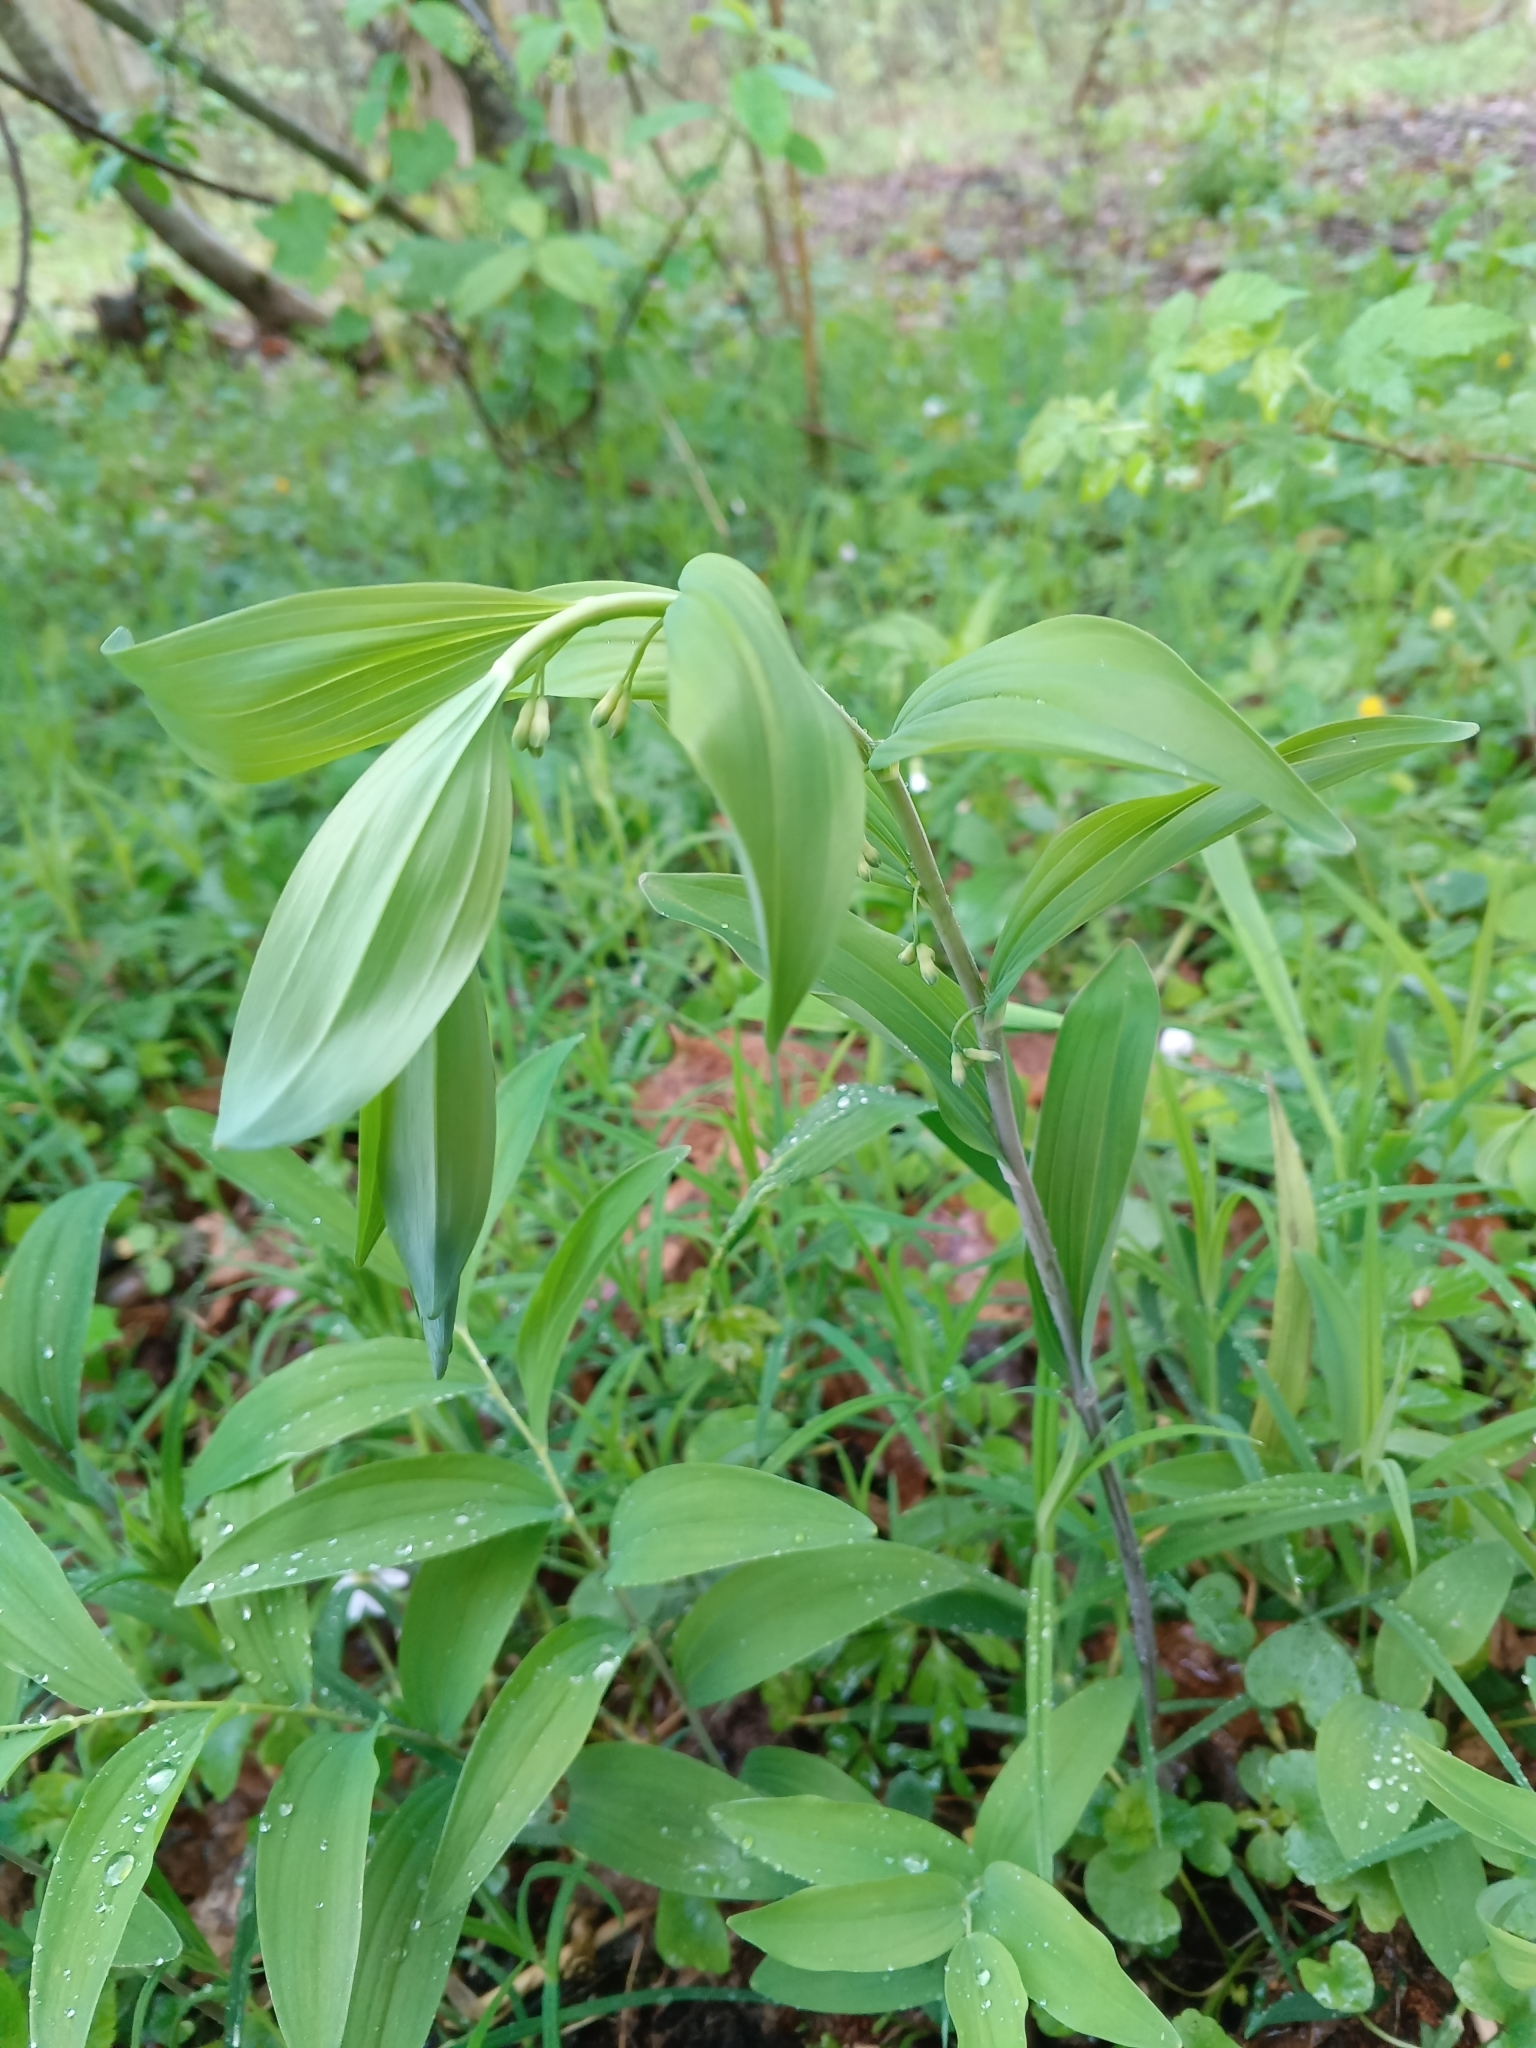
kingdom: Plantae
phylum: Tracheophyta
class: Liliopsida
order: Asparagales
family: Asparagaceae
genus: Polygonatum
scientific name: Polygonatum multiflorum
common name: Solomon's-seal
